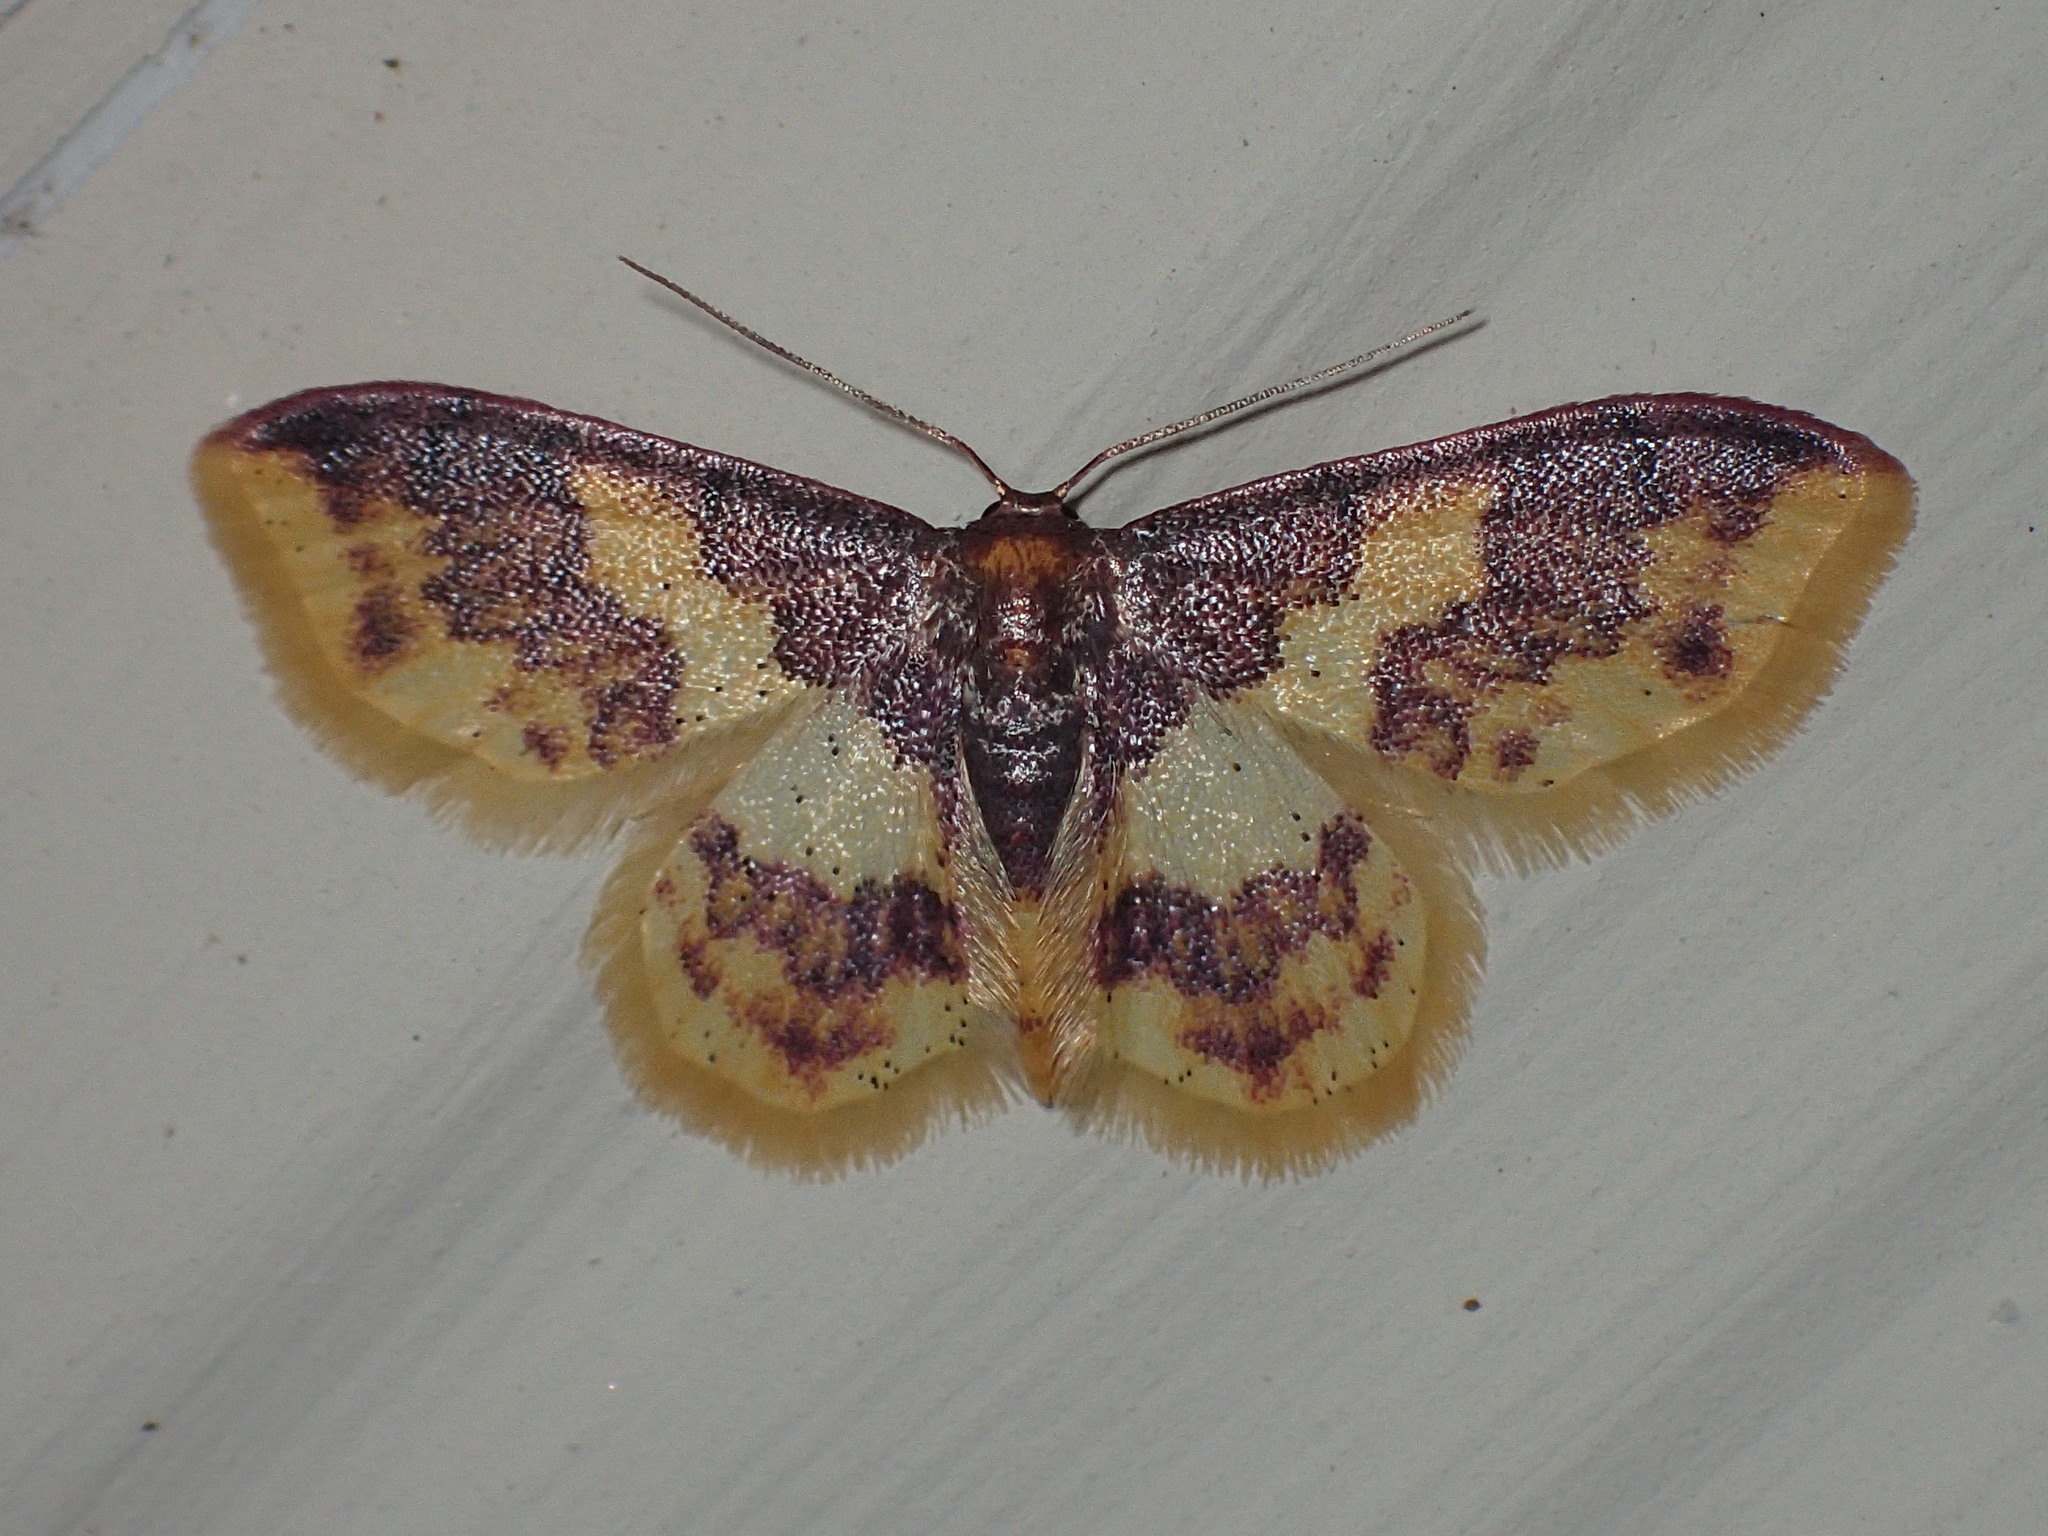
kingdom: Animalia
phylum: Arthropoda
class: Insecta
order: Lepidoptera
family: Geometridae
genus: Lophosis
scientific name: Lophosis labeculata
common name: Stained lophosis moth
